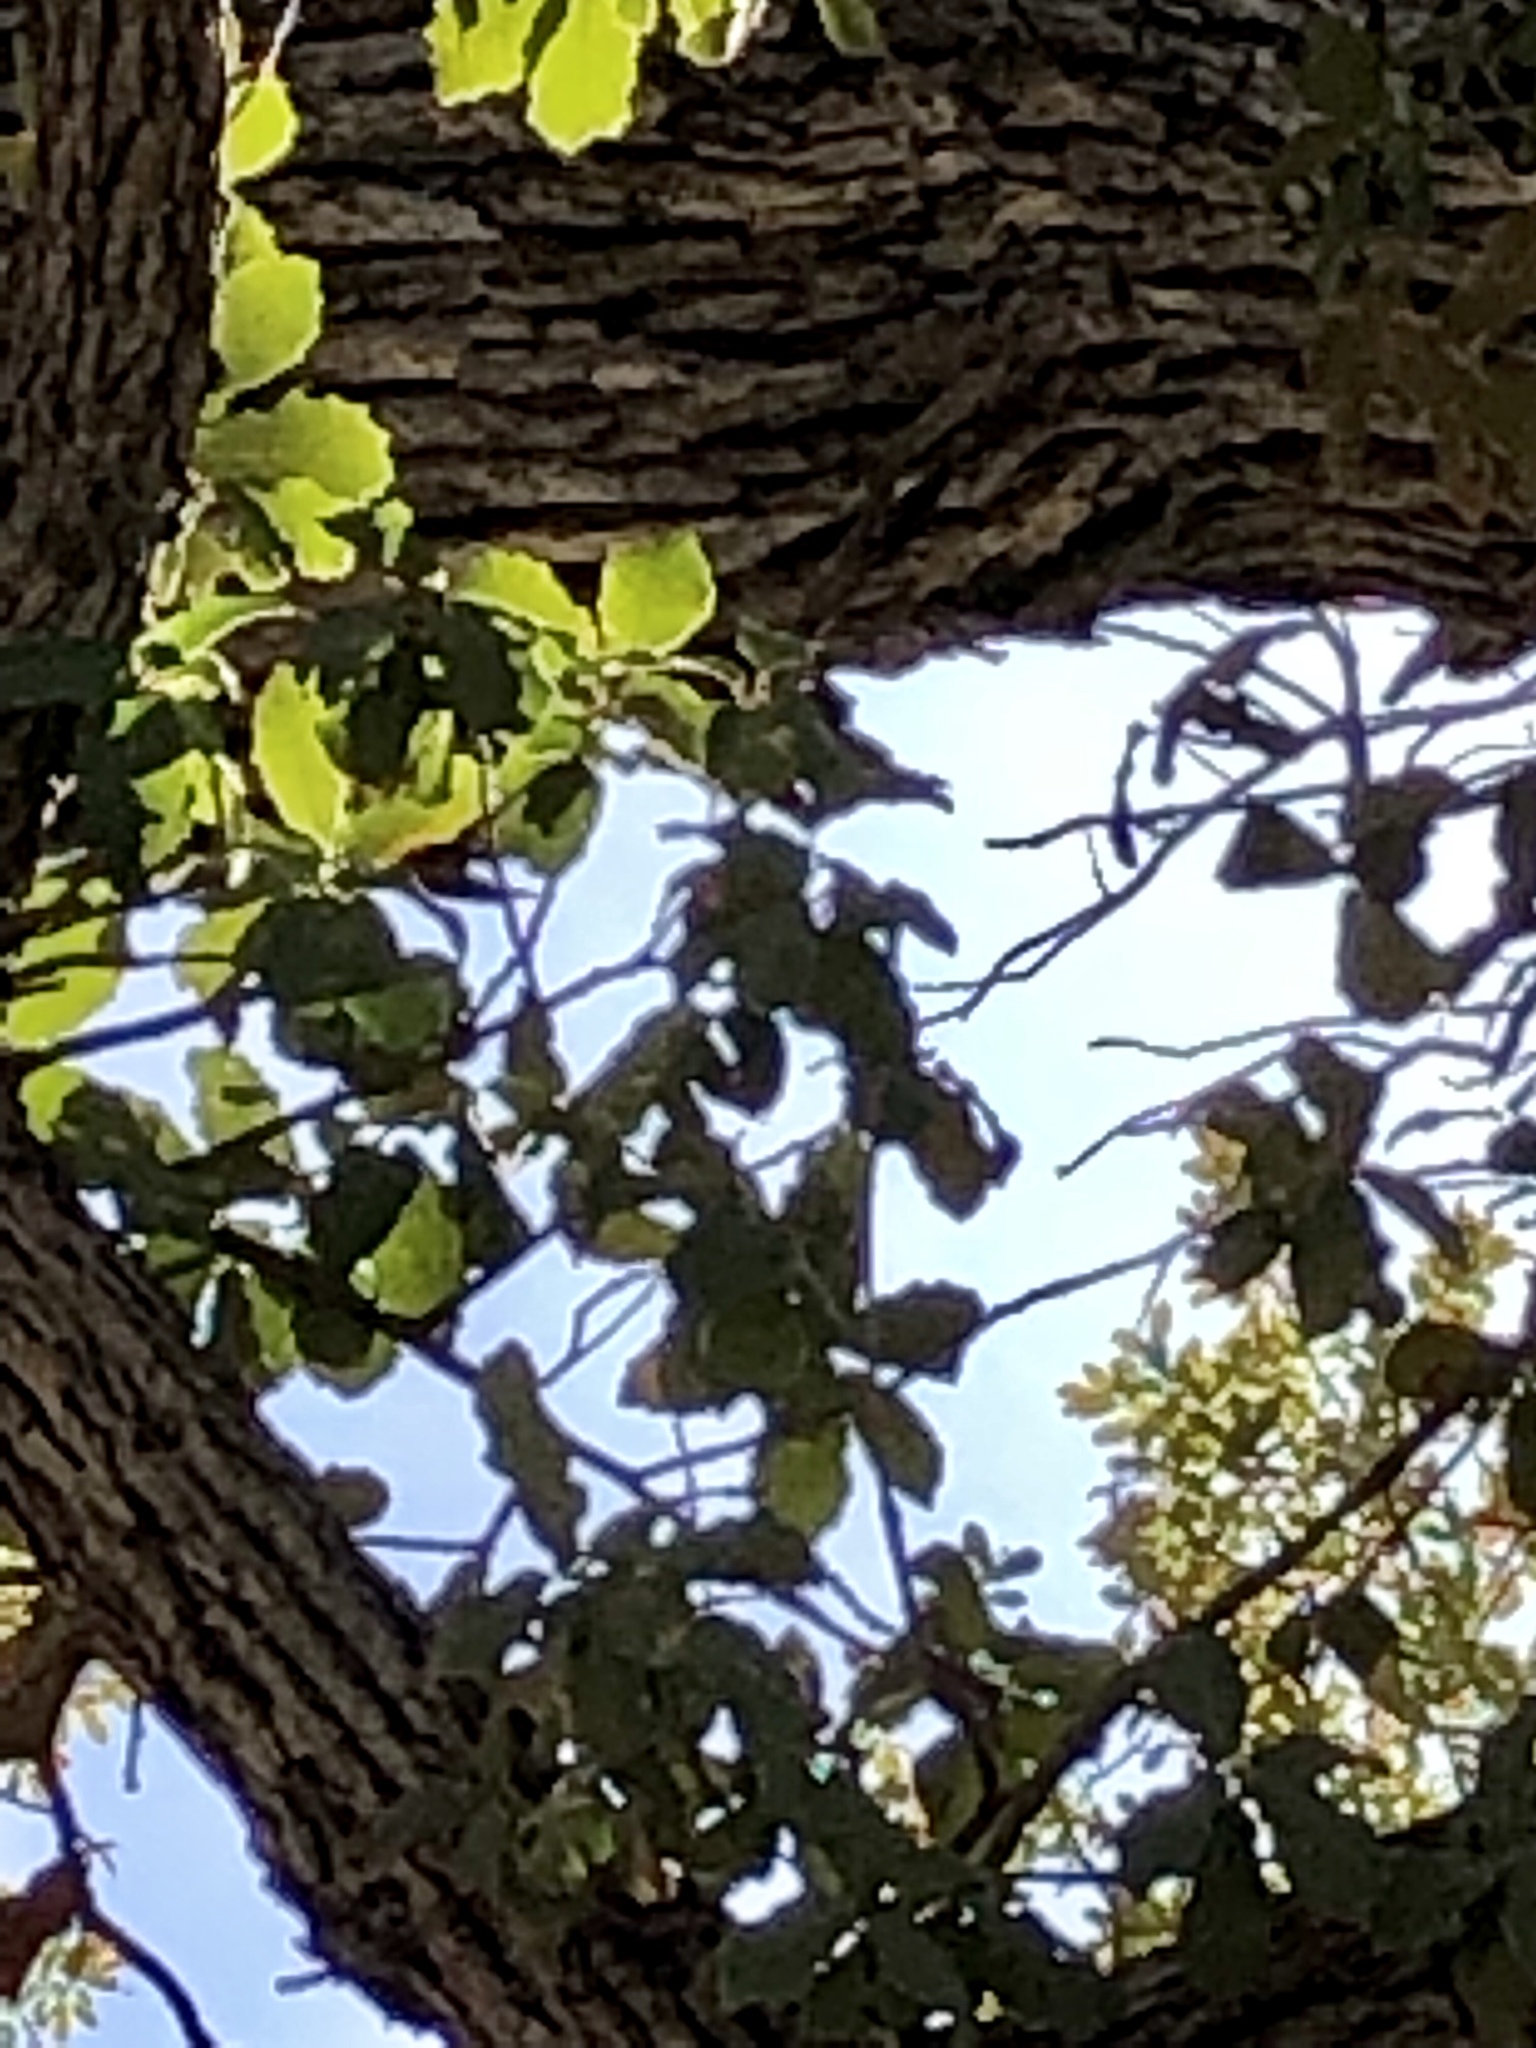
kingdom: Plantae
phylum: Tracheophyta
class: Magnoliopsida
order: Fagales
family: Fagaceae
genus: Quercus
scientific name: Quercus arizonica
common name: Arizona white oak
